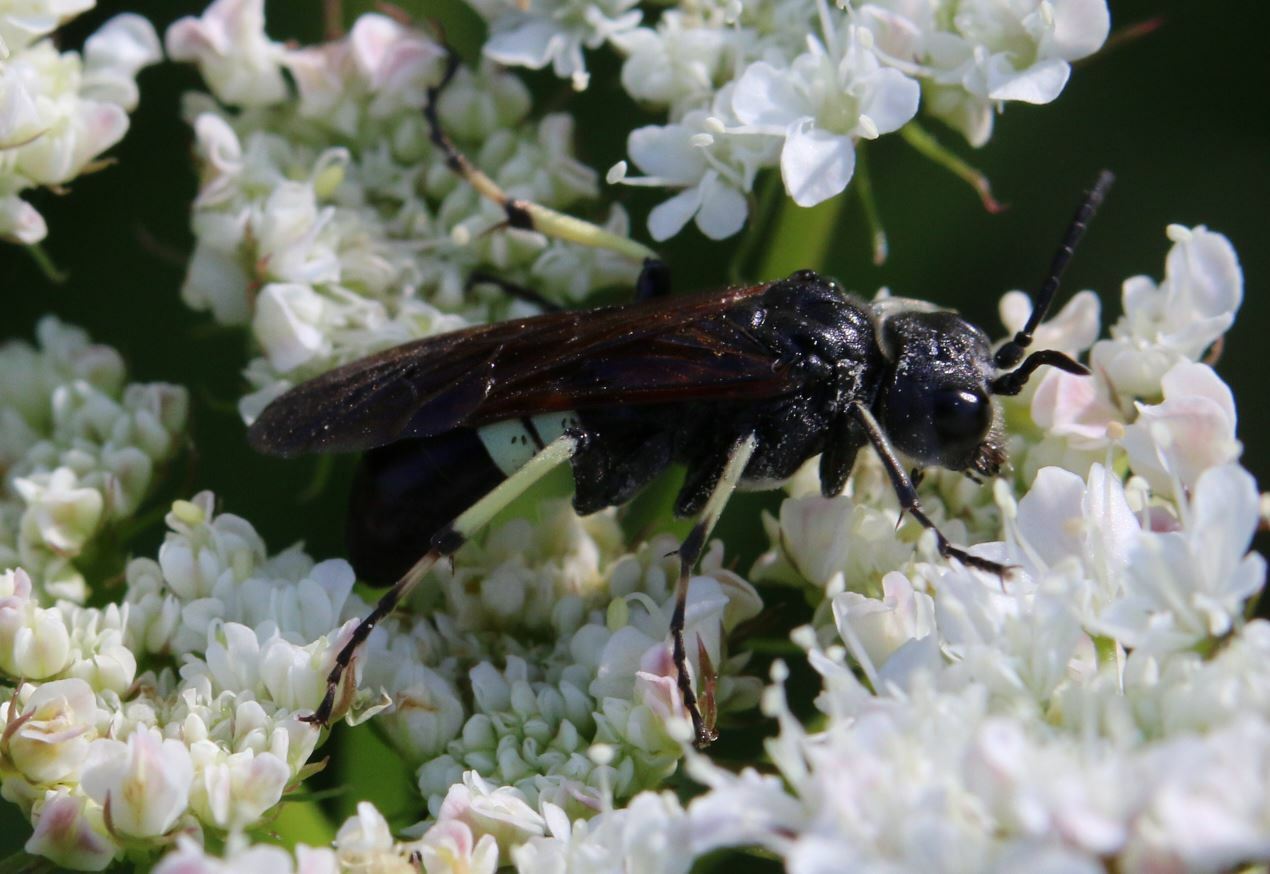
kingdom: Animalia
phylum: Arthropoda
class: Insecta
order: Hymenoptera
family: Tenthredinidae
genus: Tenthredo
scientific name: Tenthredo bifasciata
